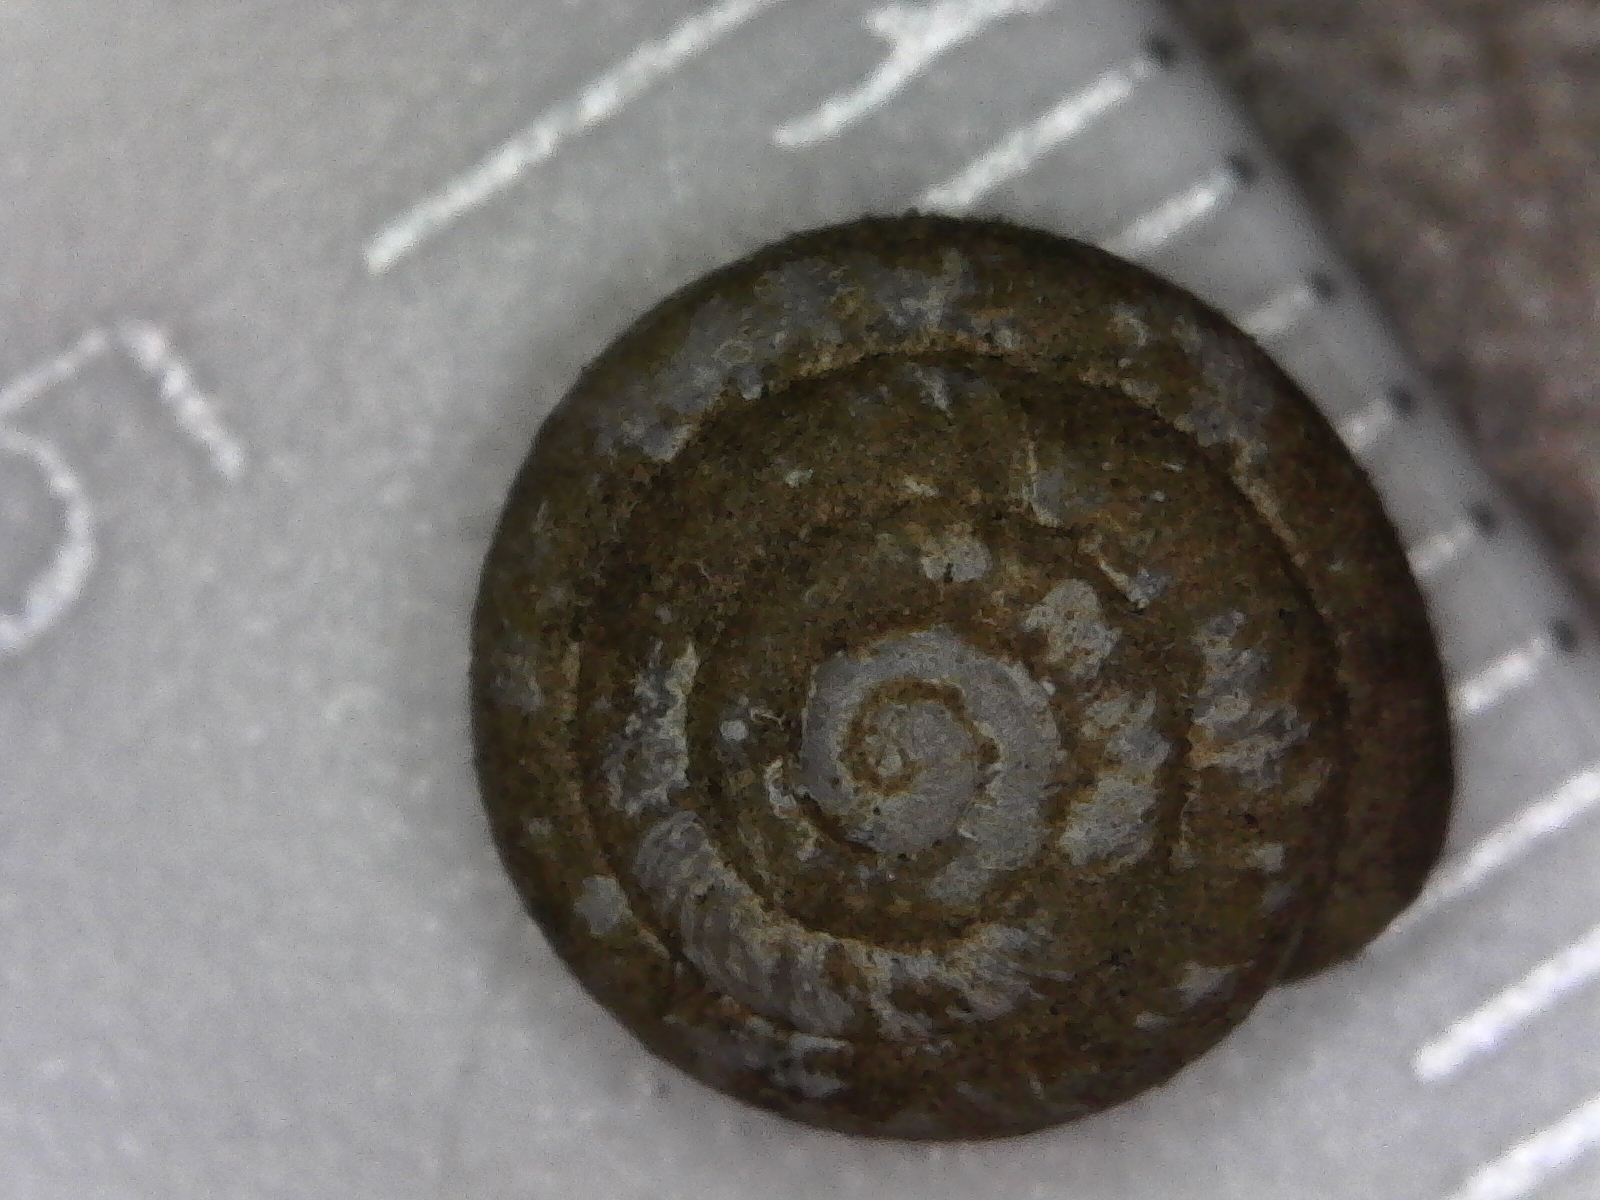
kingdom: Animalia
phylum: Mollusca
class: Gastropoda
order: Stylommatophora
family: Polygyridae
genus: Stenotrema
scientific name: Stenotrema stenotrema
